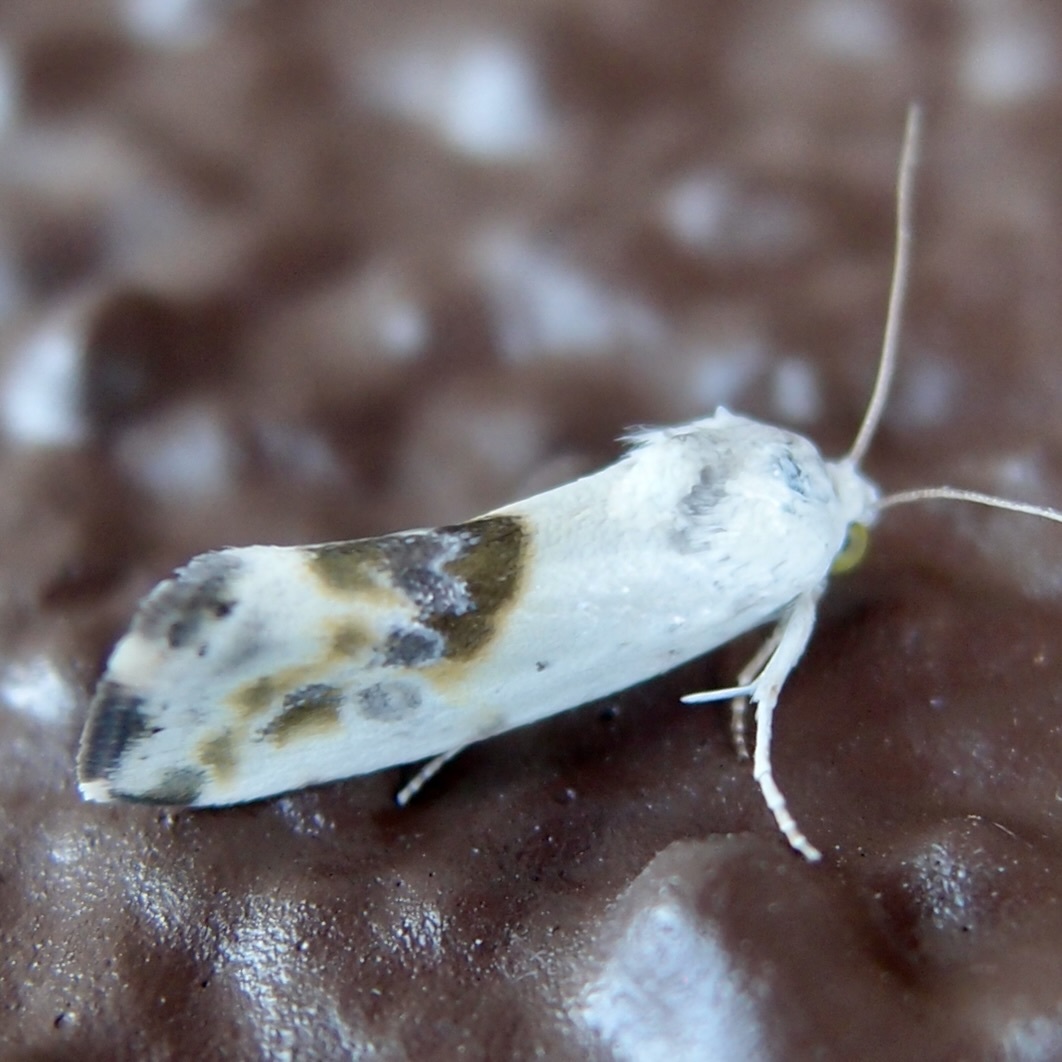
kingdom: Animalia
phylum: Arthropoda
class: Insecta
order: Lepidoptera
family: Noctuidae
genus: Acontia
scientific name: Acontia candefacta
